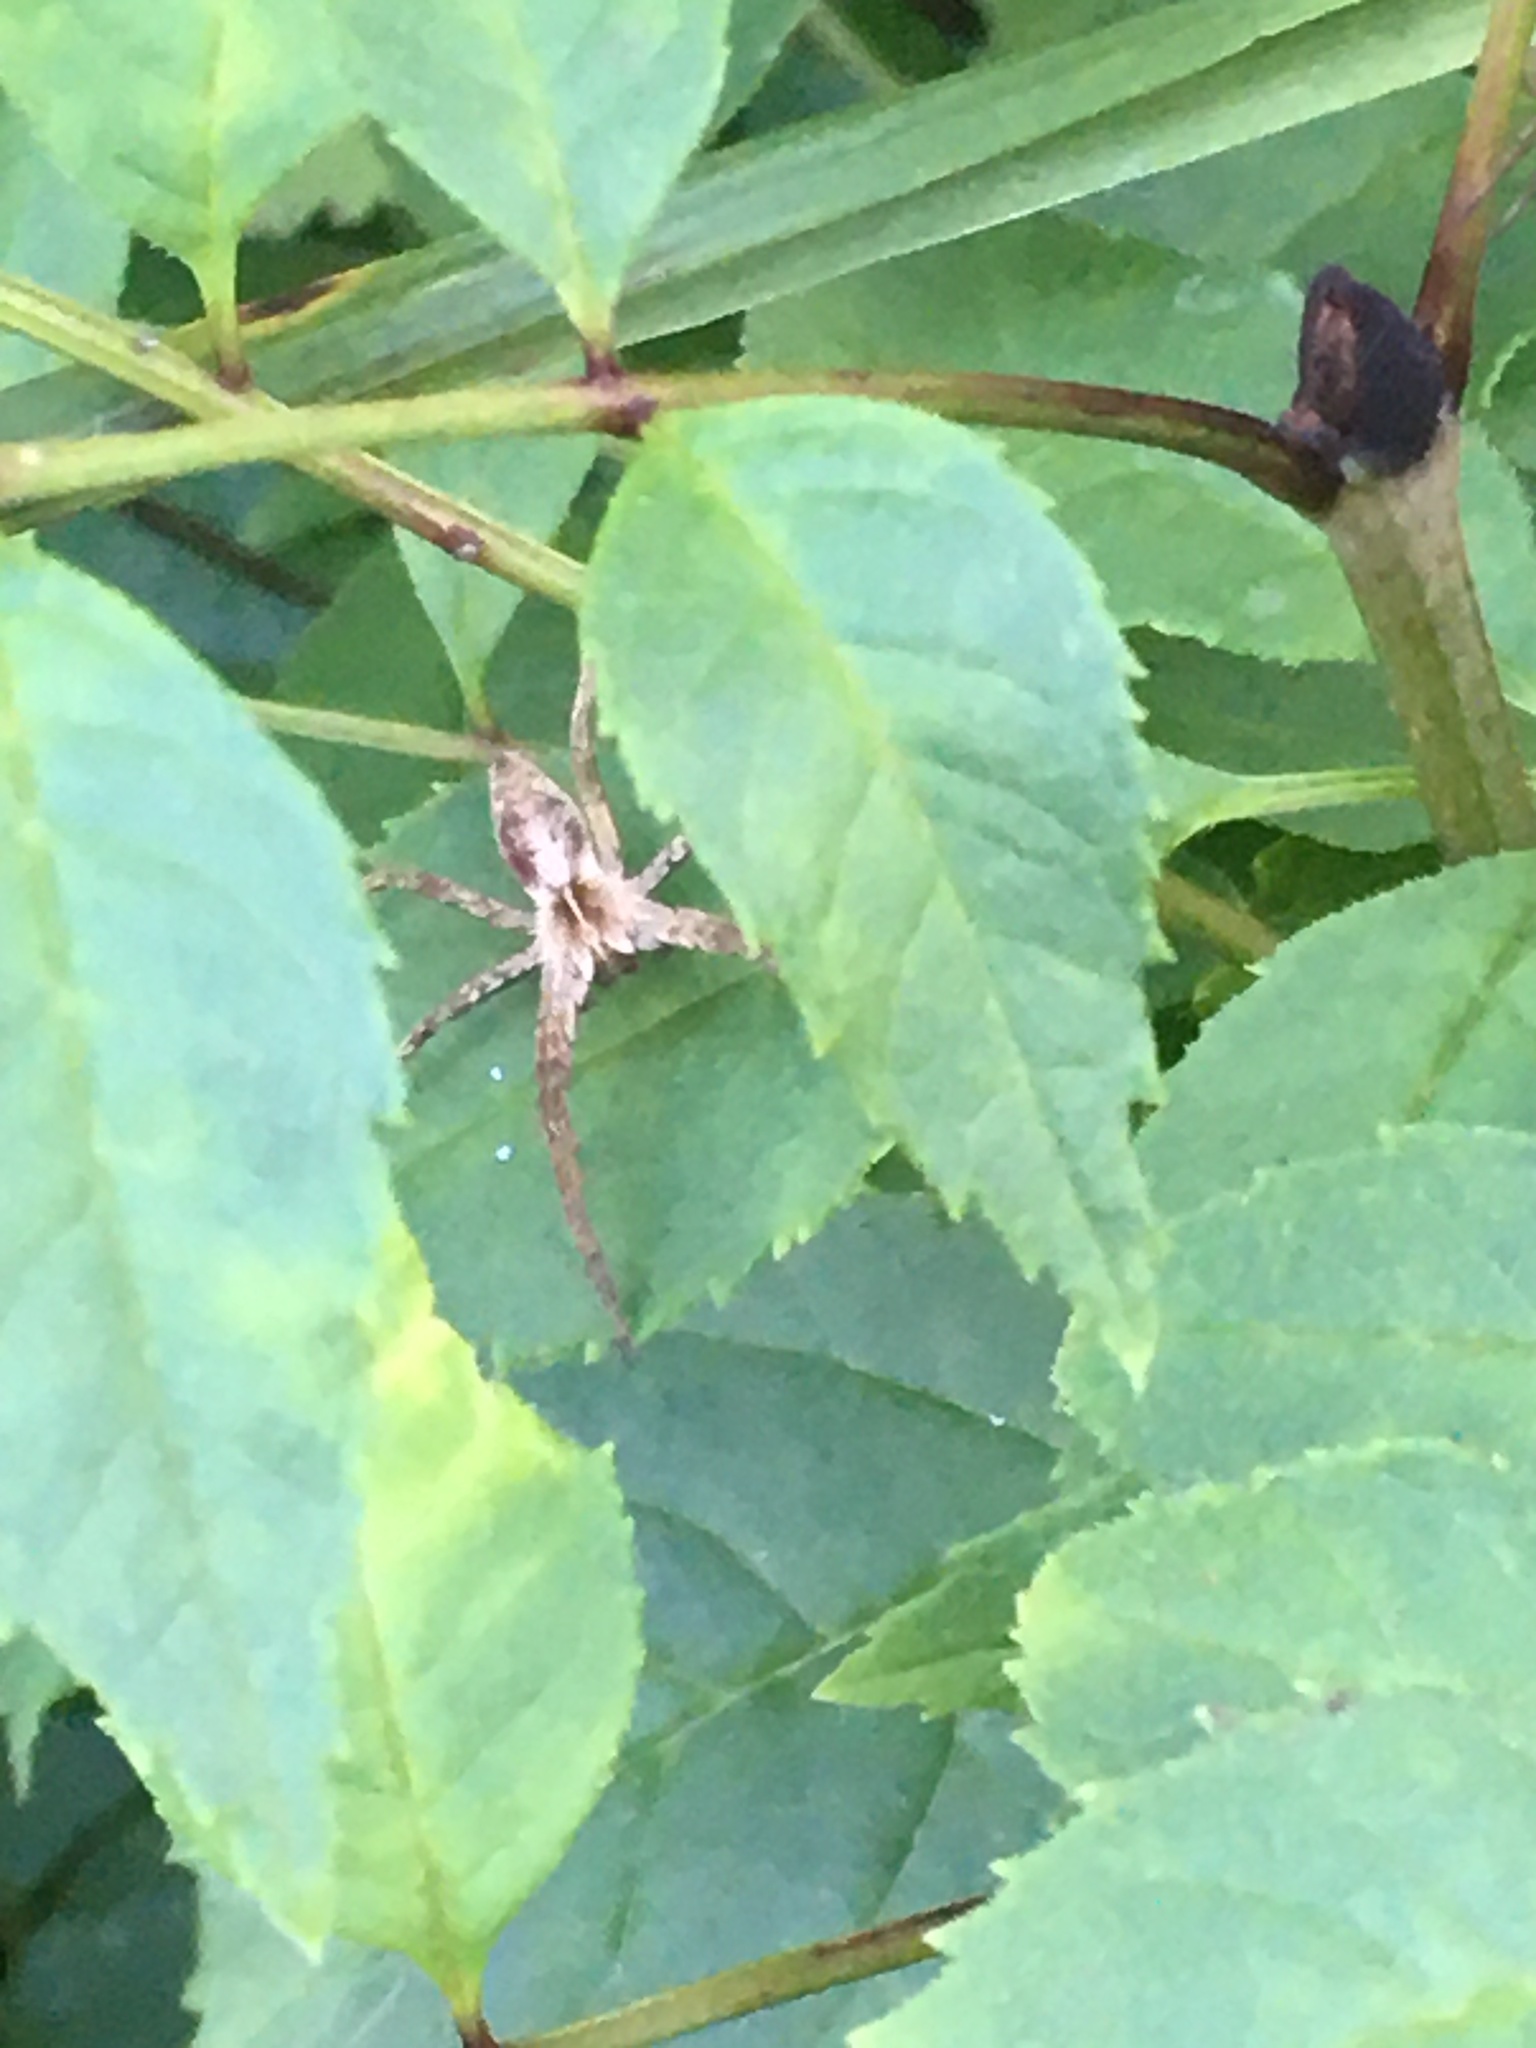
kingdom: Animalia
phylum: Arthropoda
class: Arachnida
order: Araneae
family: Pisauridae
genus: Pisaura
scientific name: Pisaura mirabilis
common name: Tent spider
